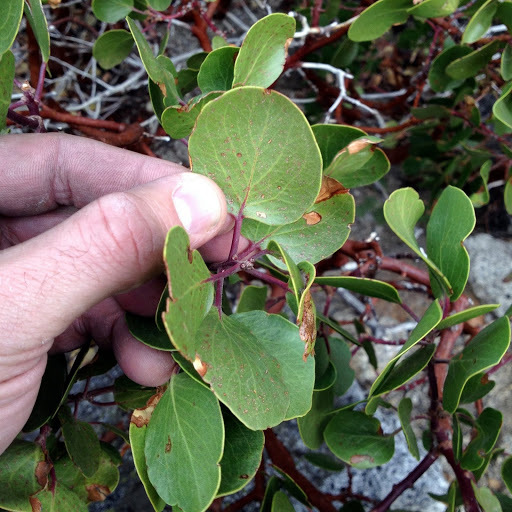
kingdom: Plantae
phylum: Tracheophyta
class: Magnoliopsida
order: Ericales
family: Ericaceae
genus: Arctostaphylos
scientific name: Arctostaphylos patula
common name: Green-leaf manzanita
